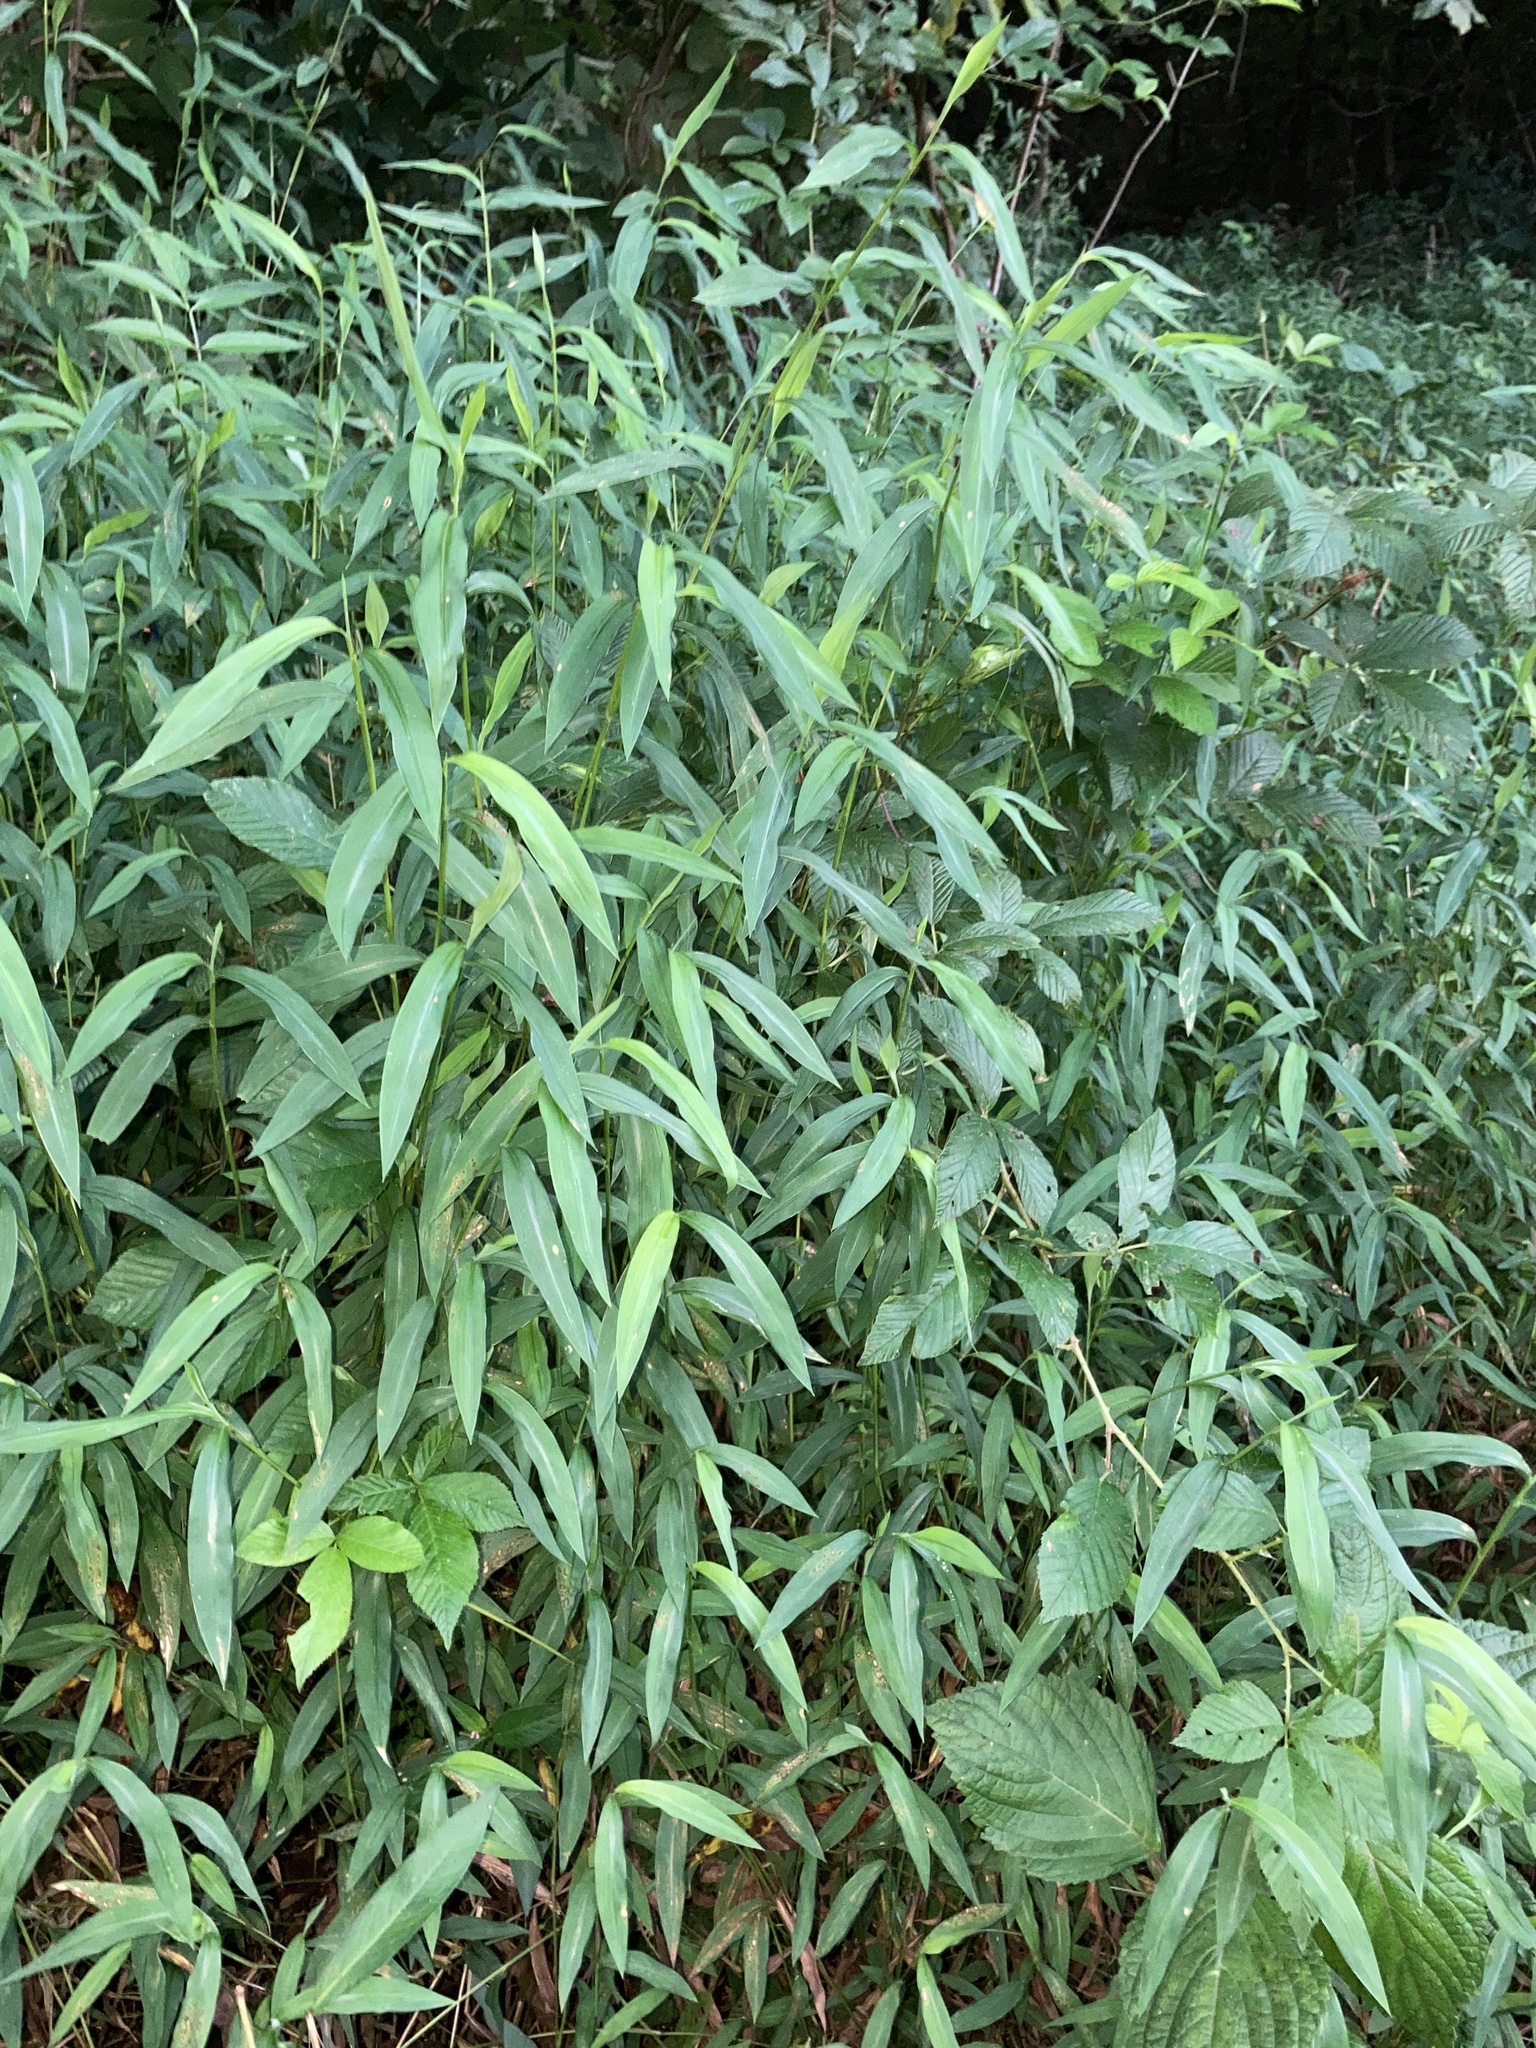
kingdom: Plantae
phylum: Tracheophyta
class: Liliopsida
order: Poales
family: Poaceae
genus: Microstegium
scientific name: Microstegium vimineum
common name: Japanese stiltgrass
